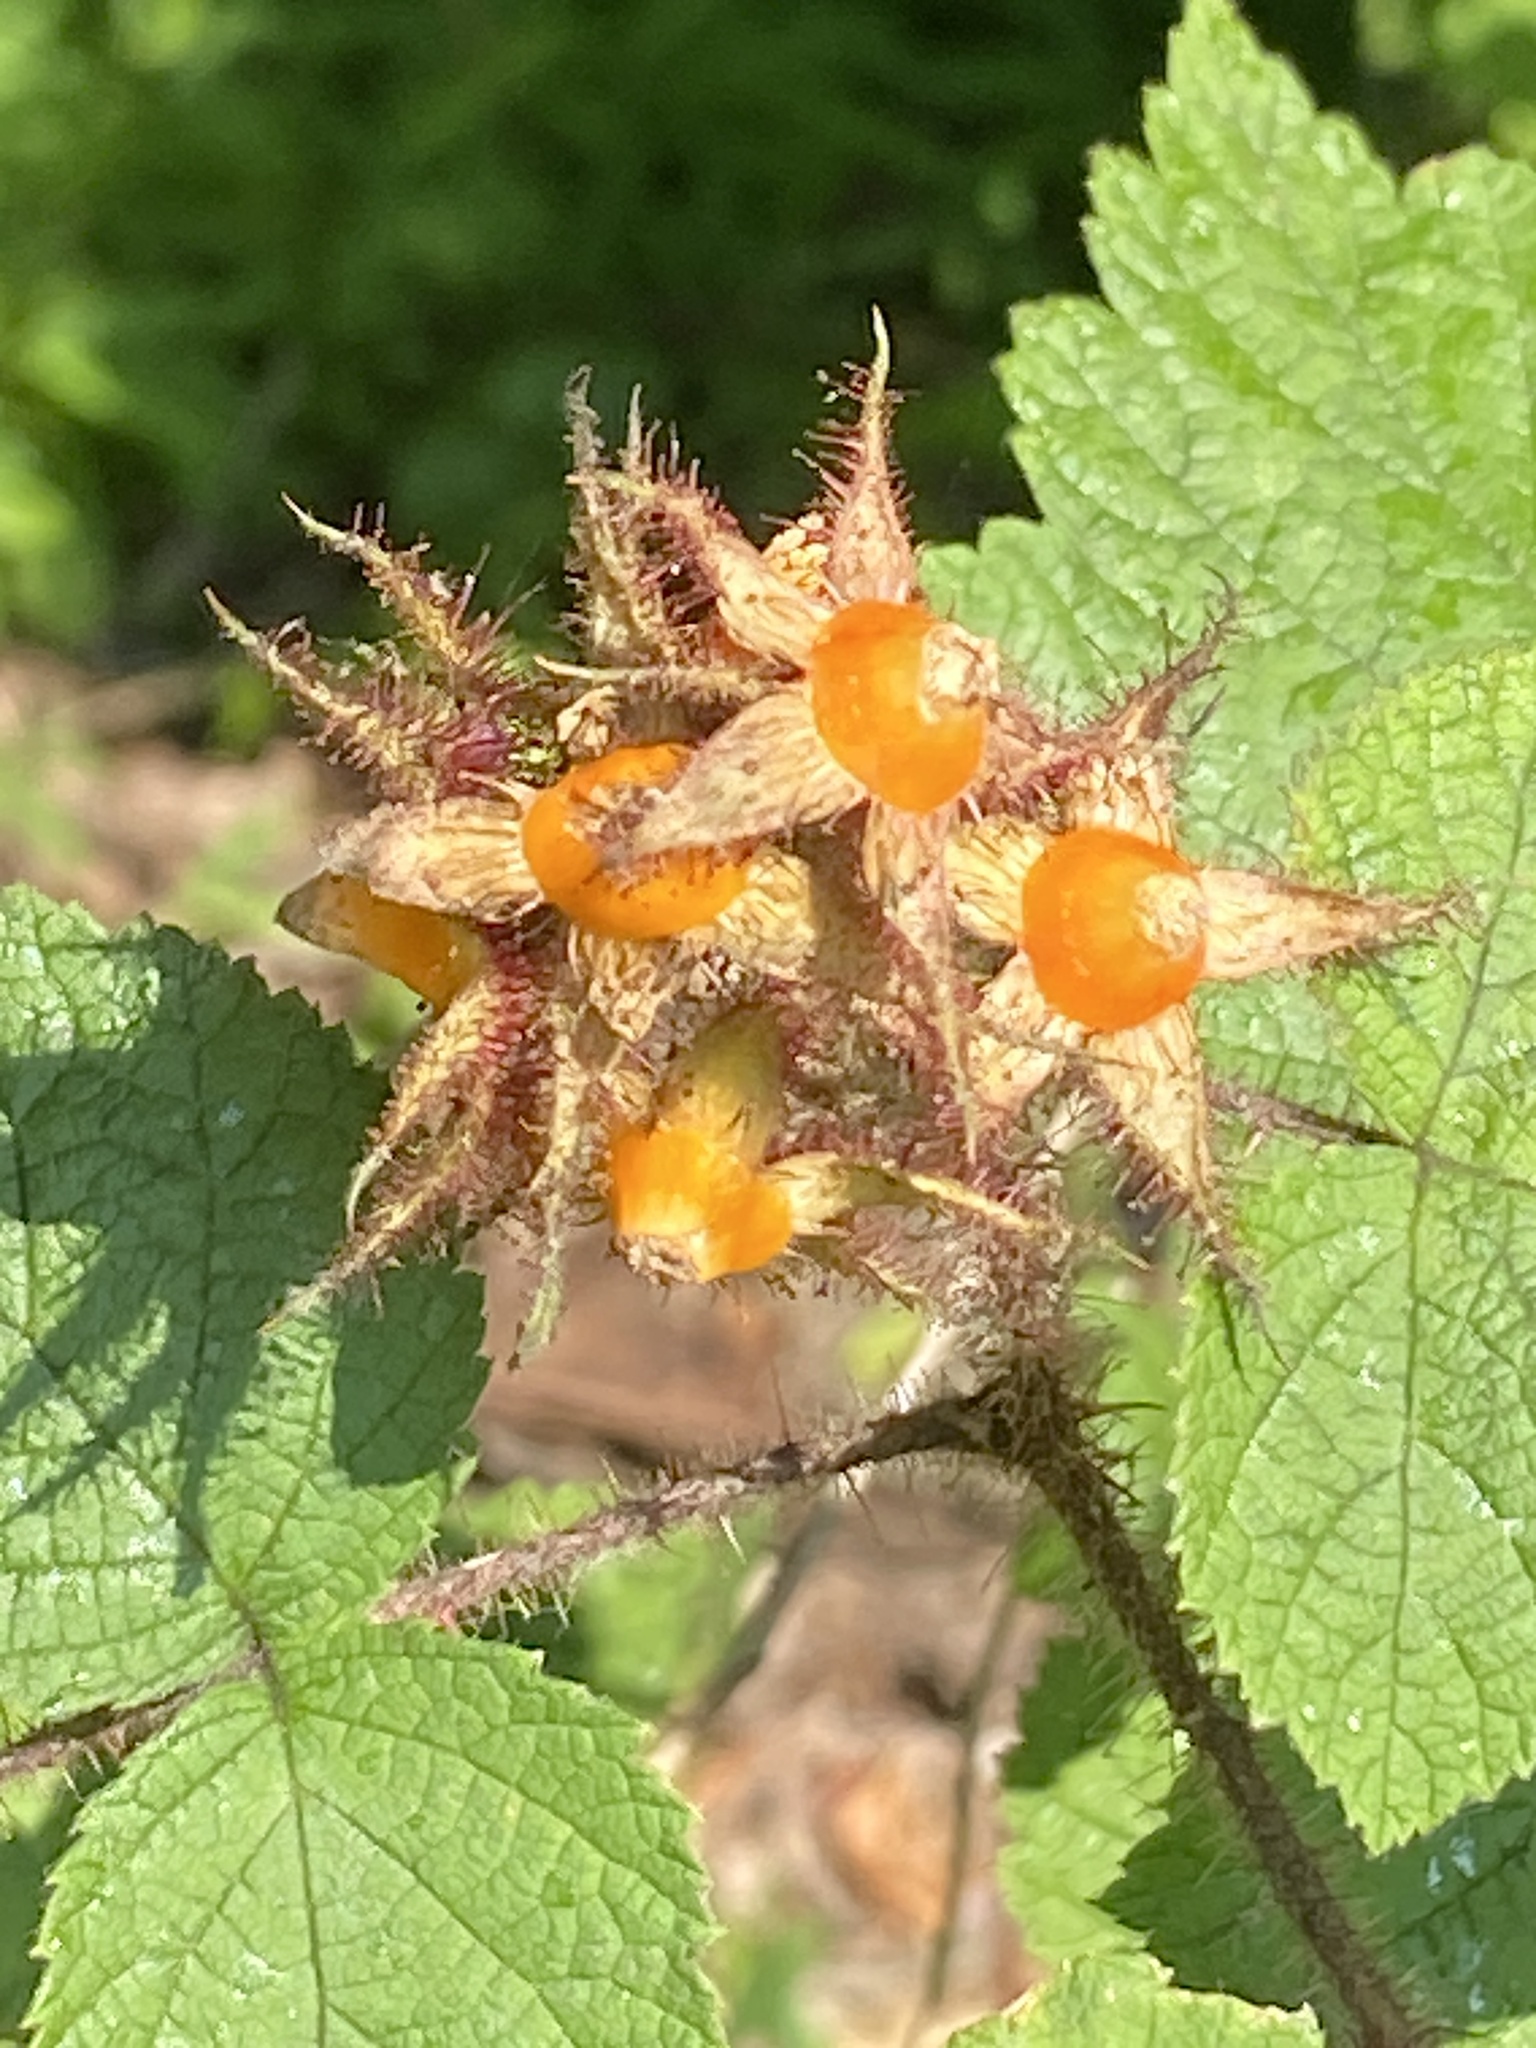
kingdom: Plantae
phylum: Tracheophyta
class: Magnoliopsida
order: Rosales
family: Rosaceae
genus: Rubus
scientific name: Rubus phoenicolasius
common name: Japanese wineberry
